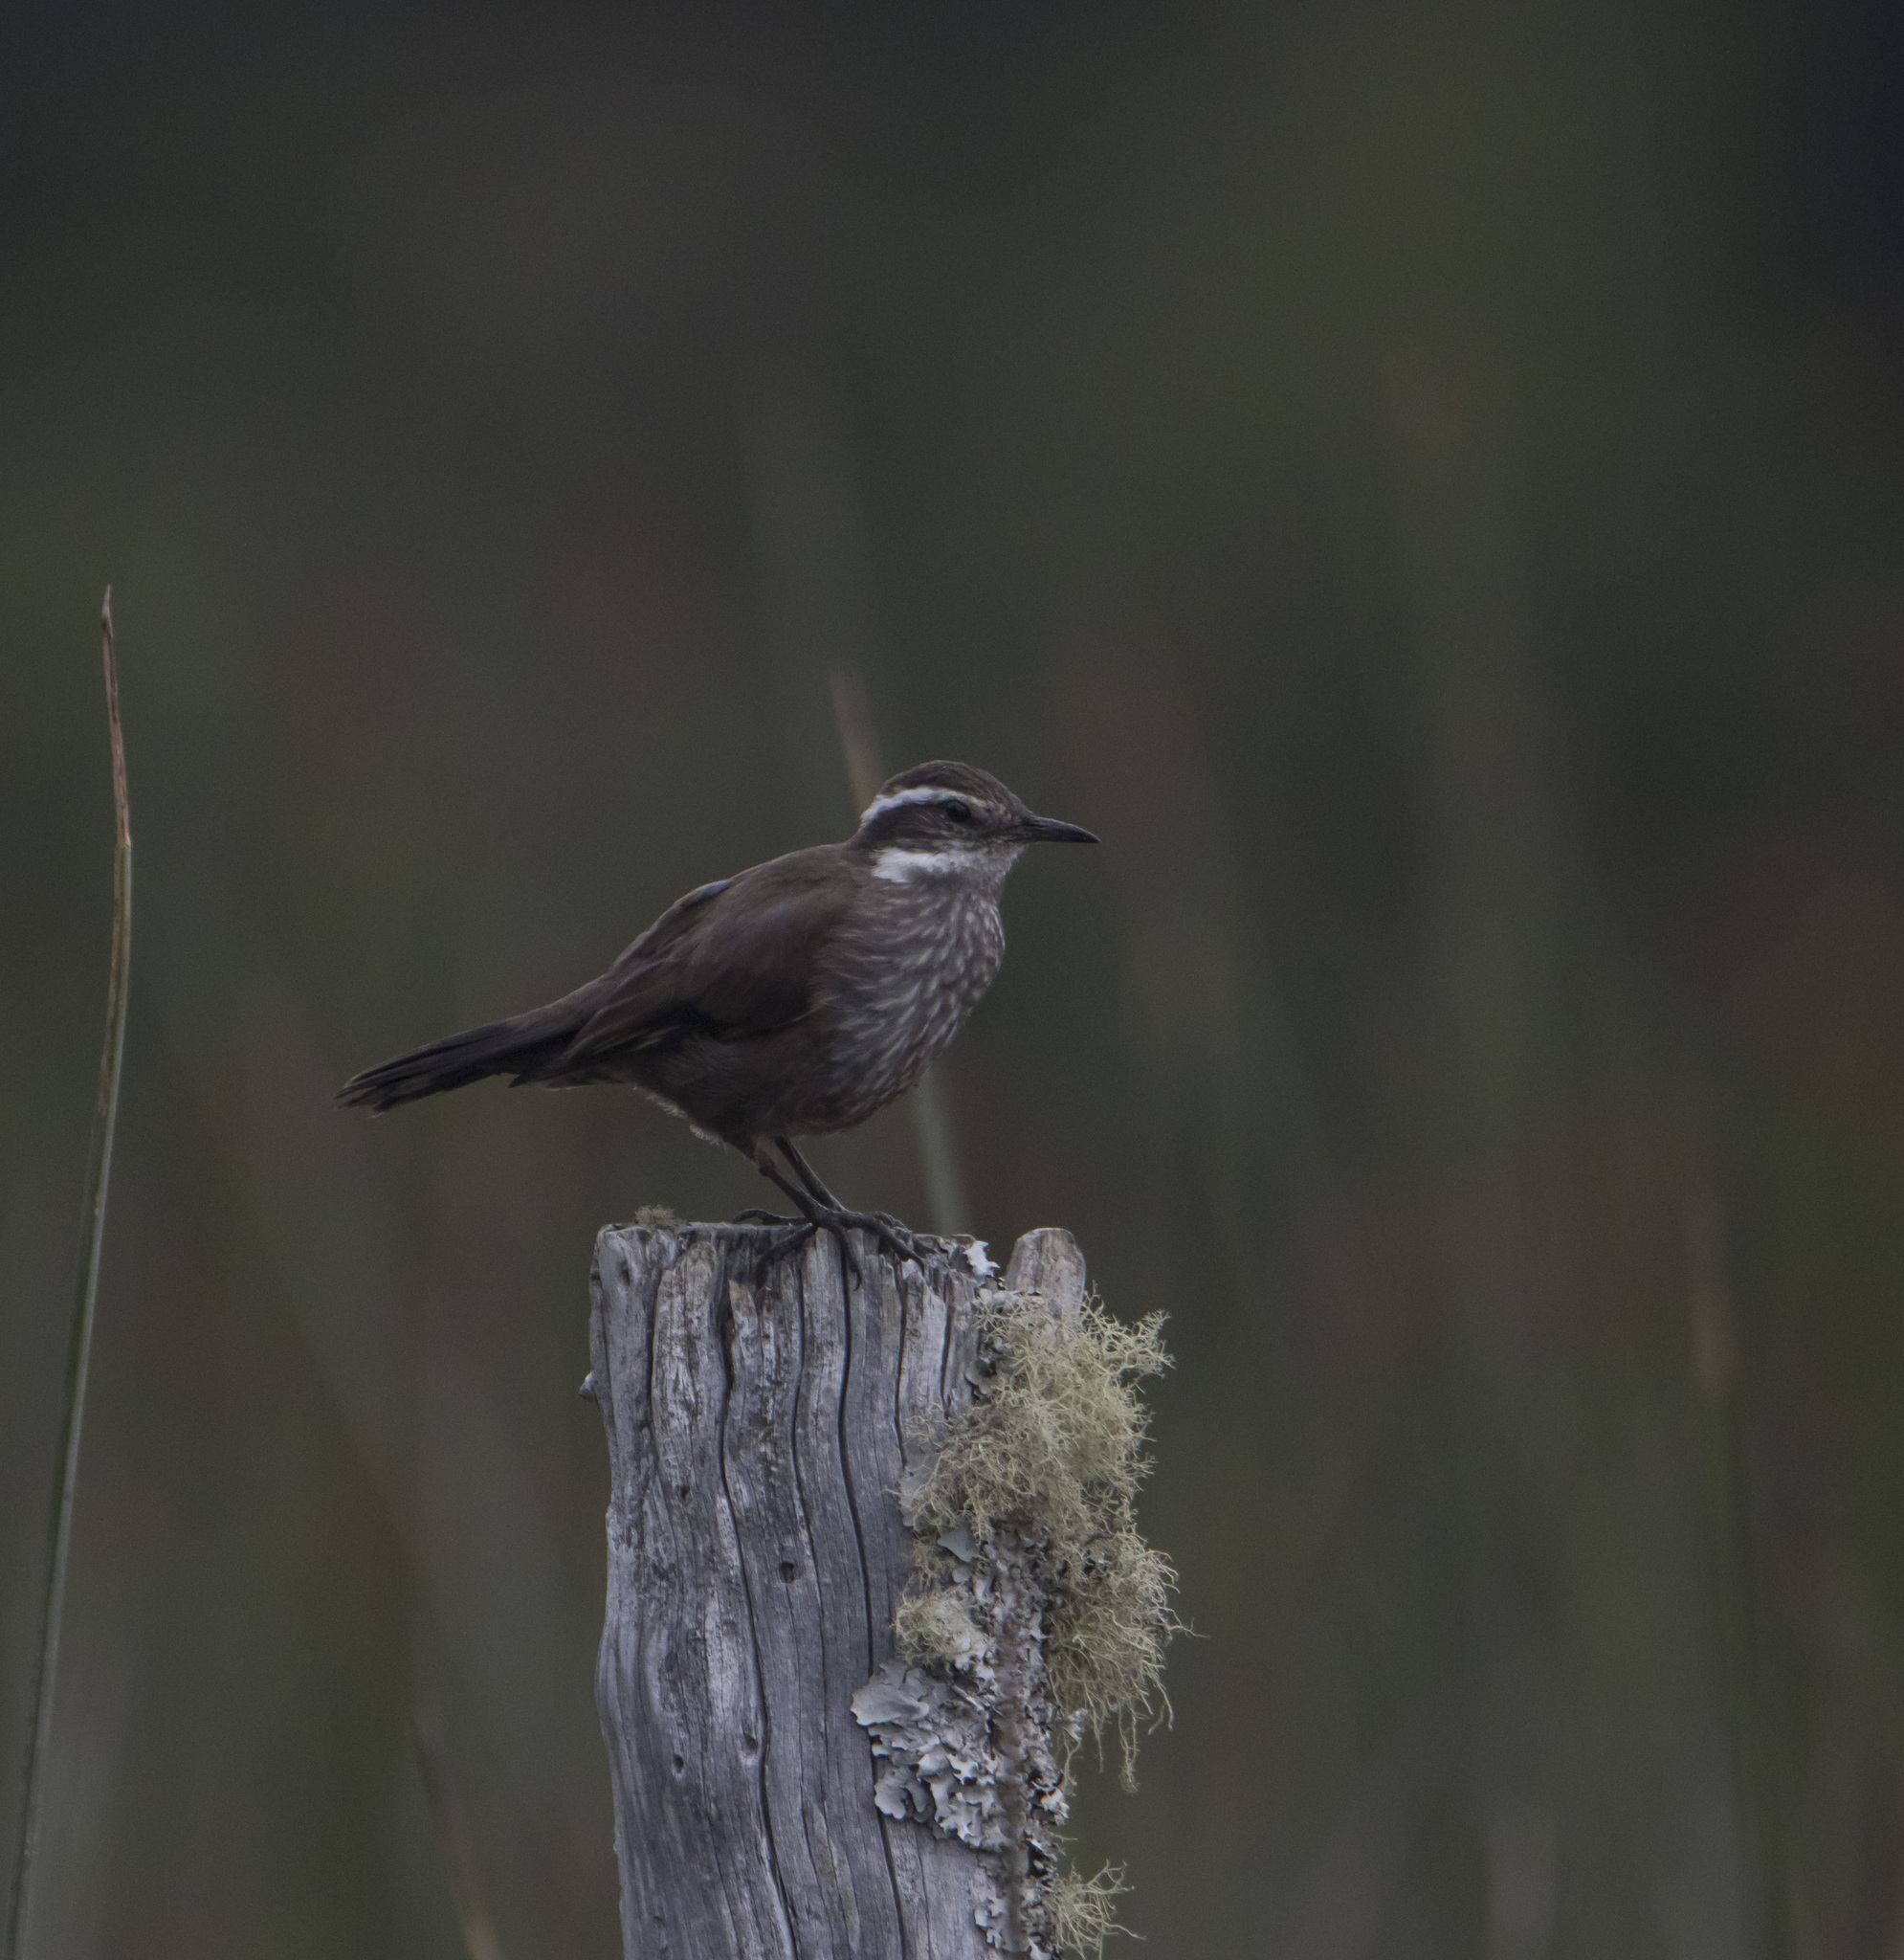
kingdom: Animalia
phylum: Chordata
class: Aves
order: Passeriformes
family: Furnariidae
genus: Cinclodes
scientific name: Cinclodes patagonicus
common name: Dark-bellied cinclodes
